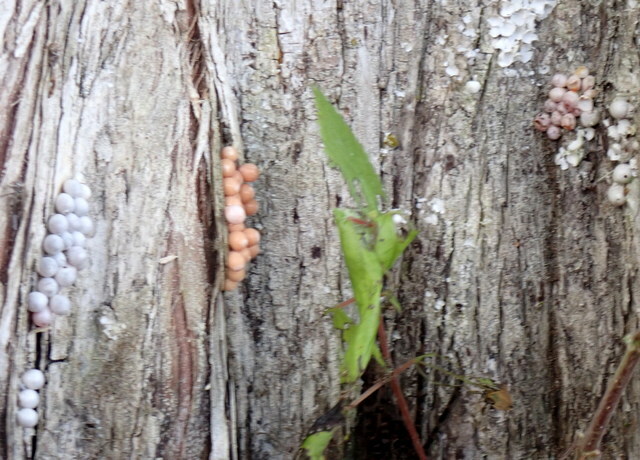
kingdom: Animalia
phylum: Mollusca
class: Gastropoda
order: Architaenioglossa
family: Ampullariidae
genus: Pomacea
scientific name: Pomacea paludosa
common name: Florida applesnail
